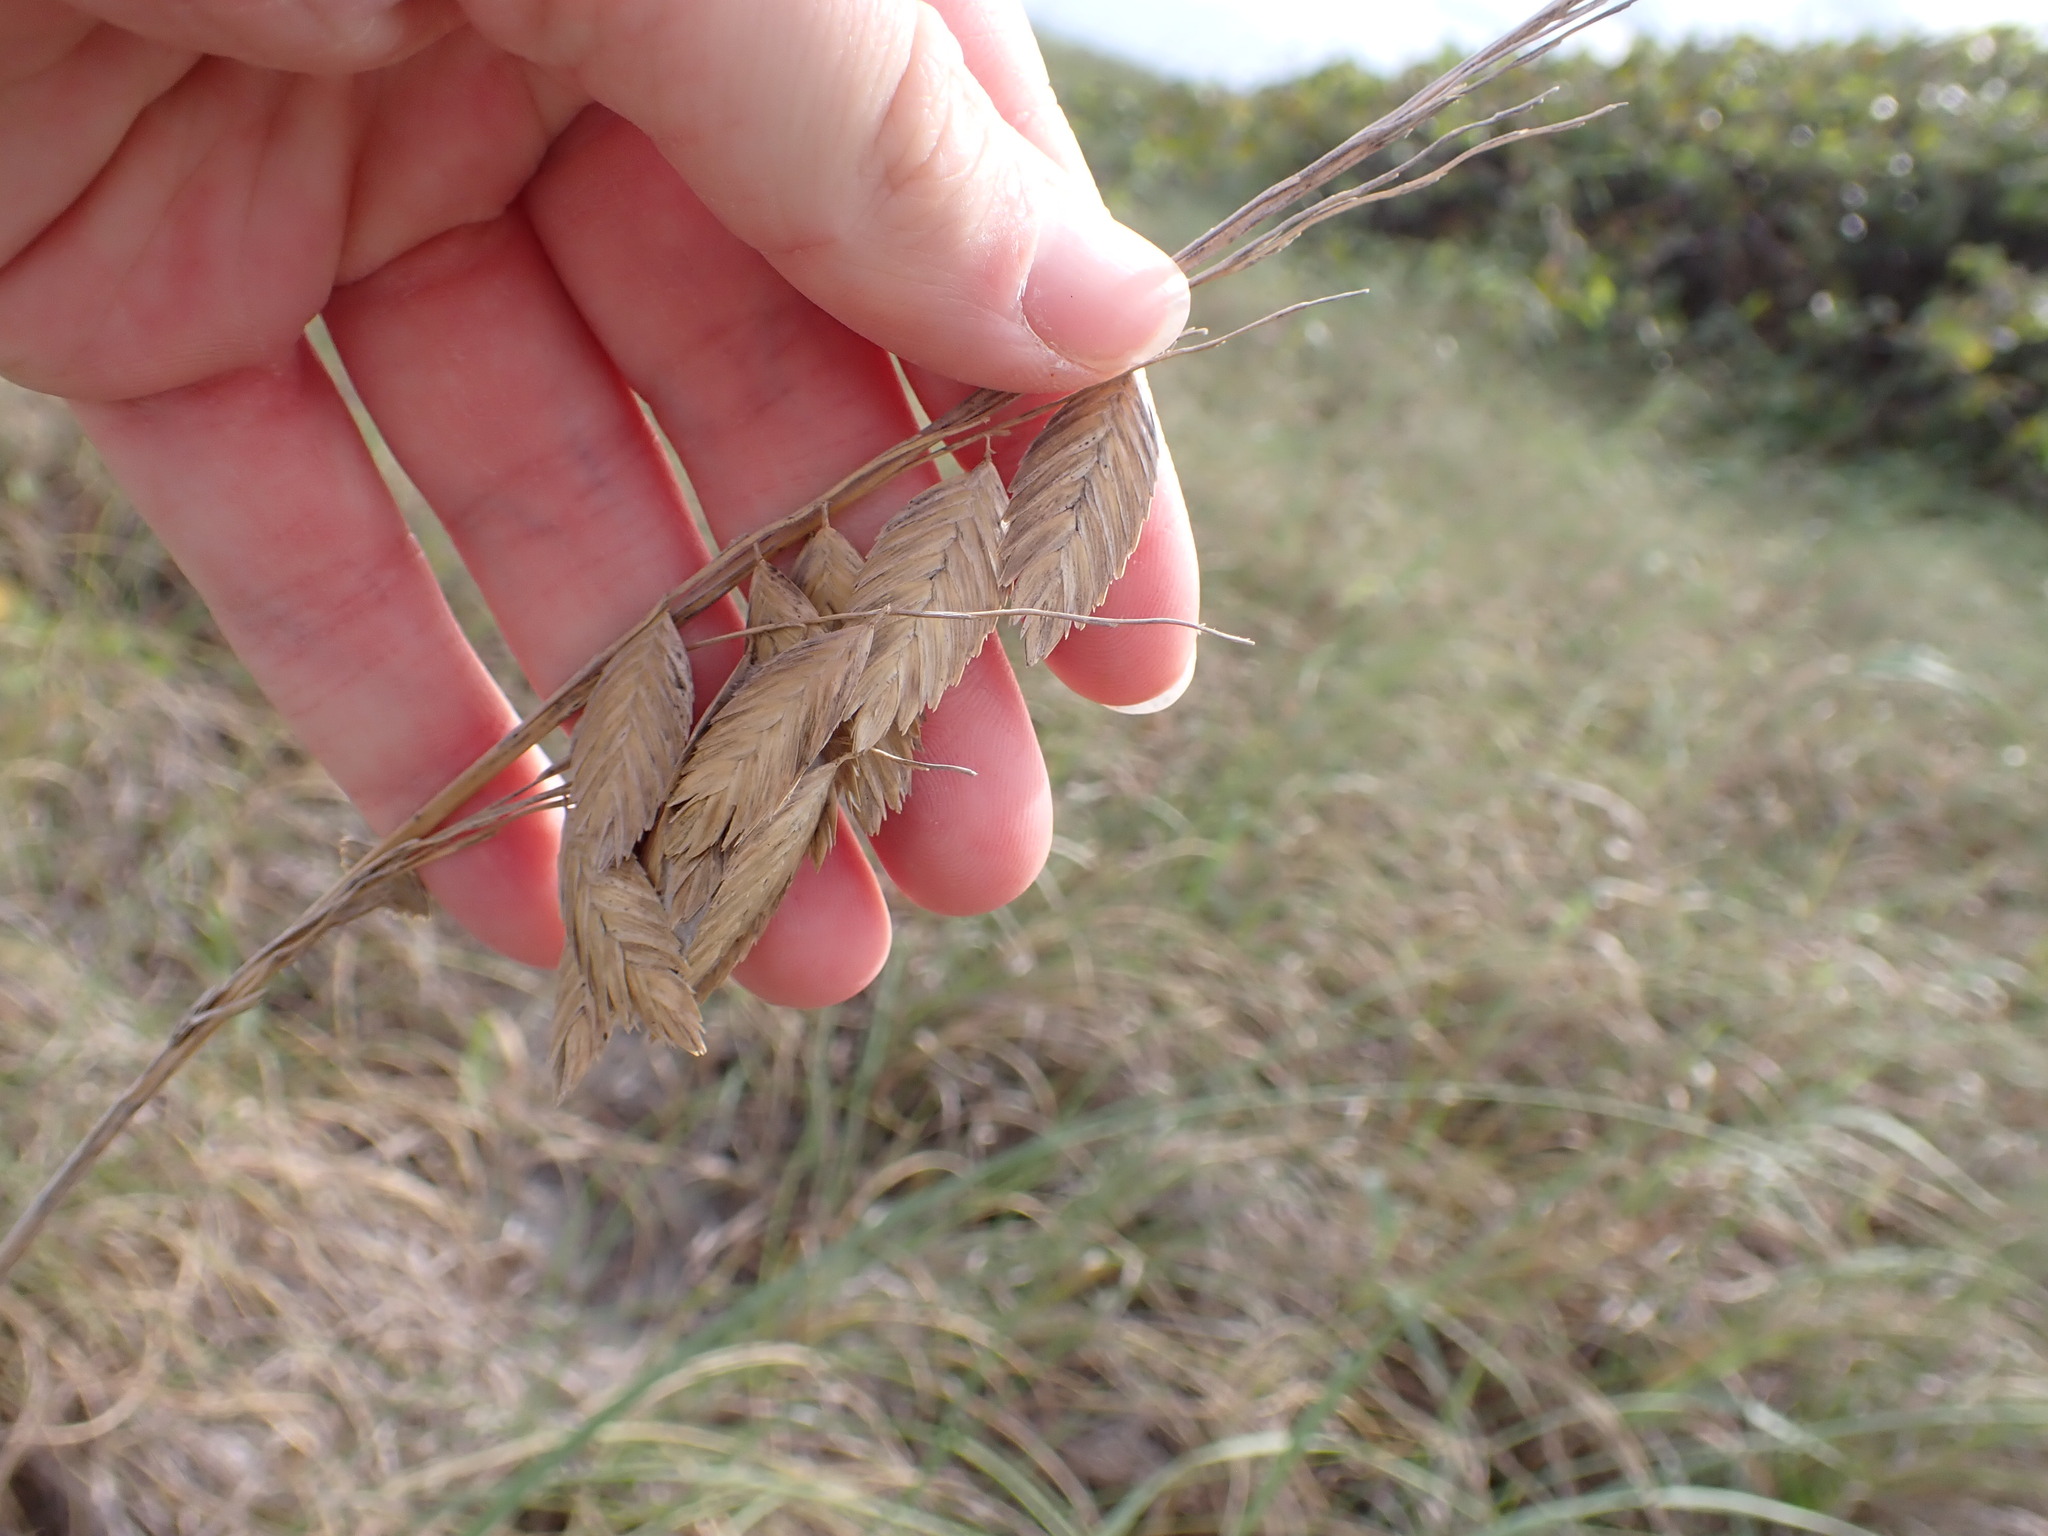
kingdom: Plantae
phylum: Tracheophyta
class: Liliopsida
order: Poales
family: Poaceae
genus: Uniola
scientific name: Uniola paniculata
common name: Seaside-oats
